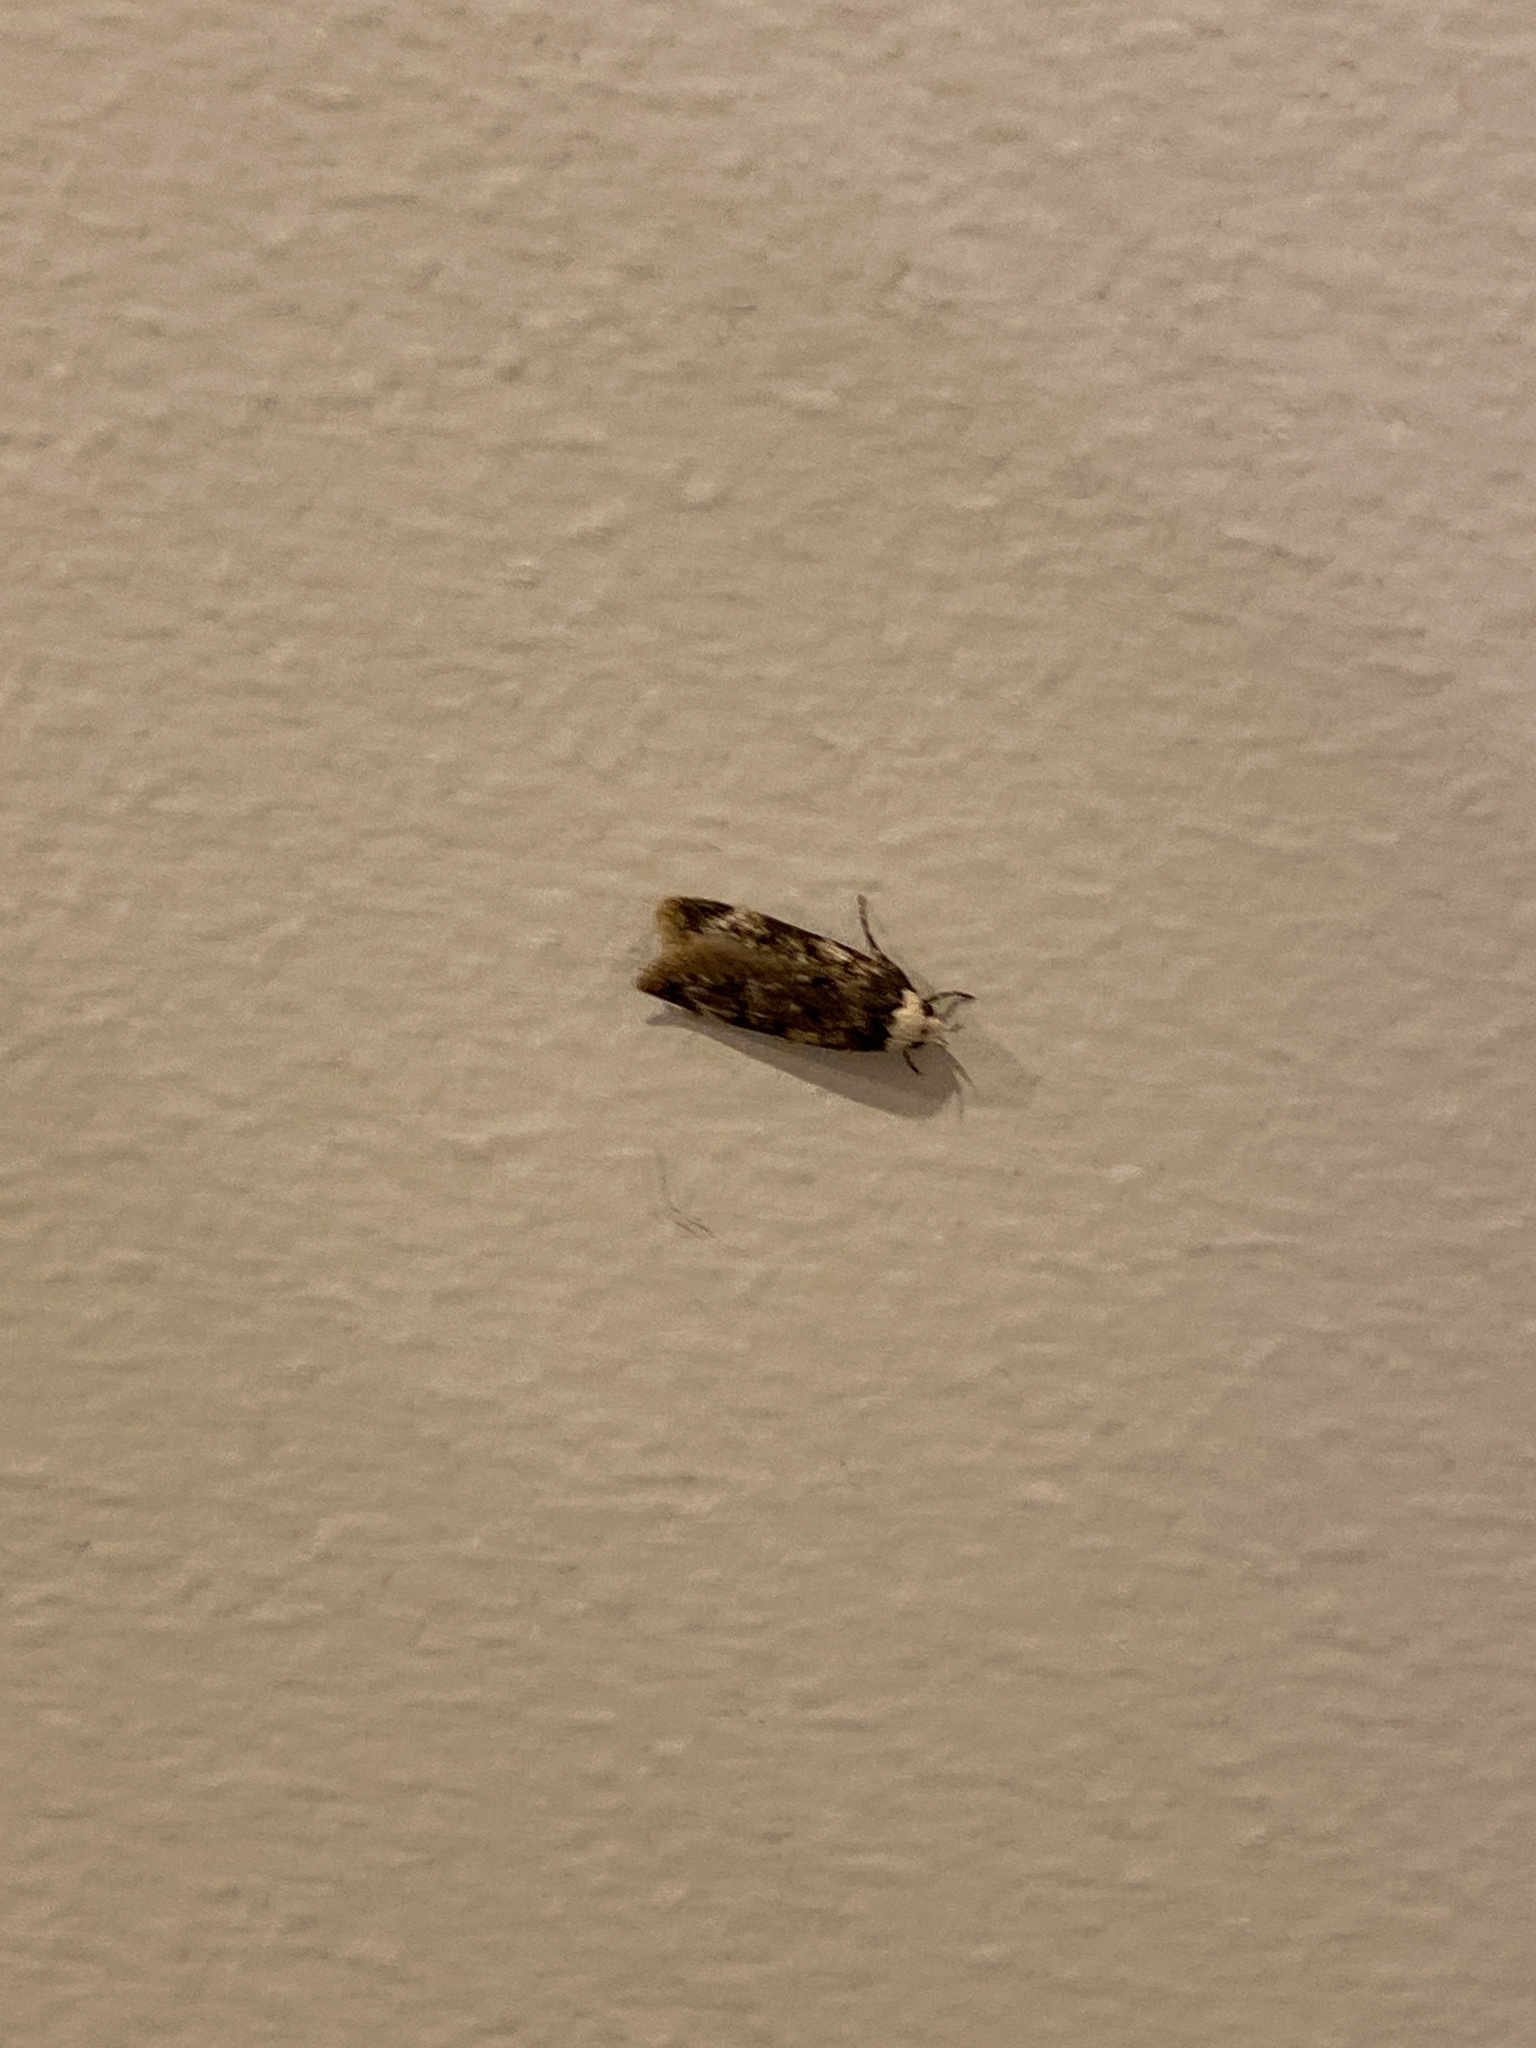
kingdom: Animalia
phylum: Arthropoda
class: Insecta
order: Lepidoptera
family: Oecophoridae
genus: Endrosis
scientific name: Endrosis sarcitrella
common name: White-shouldered house moth
